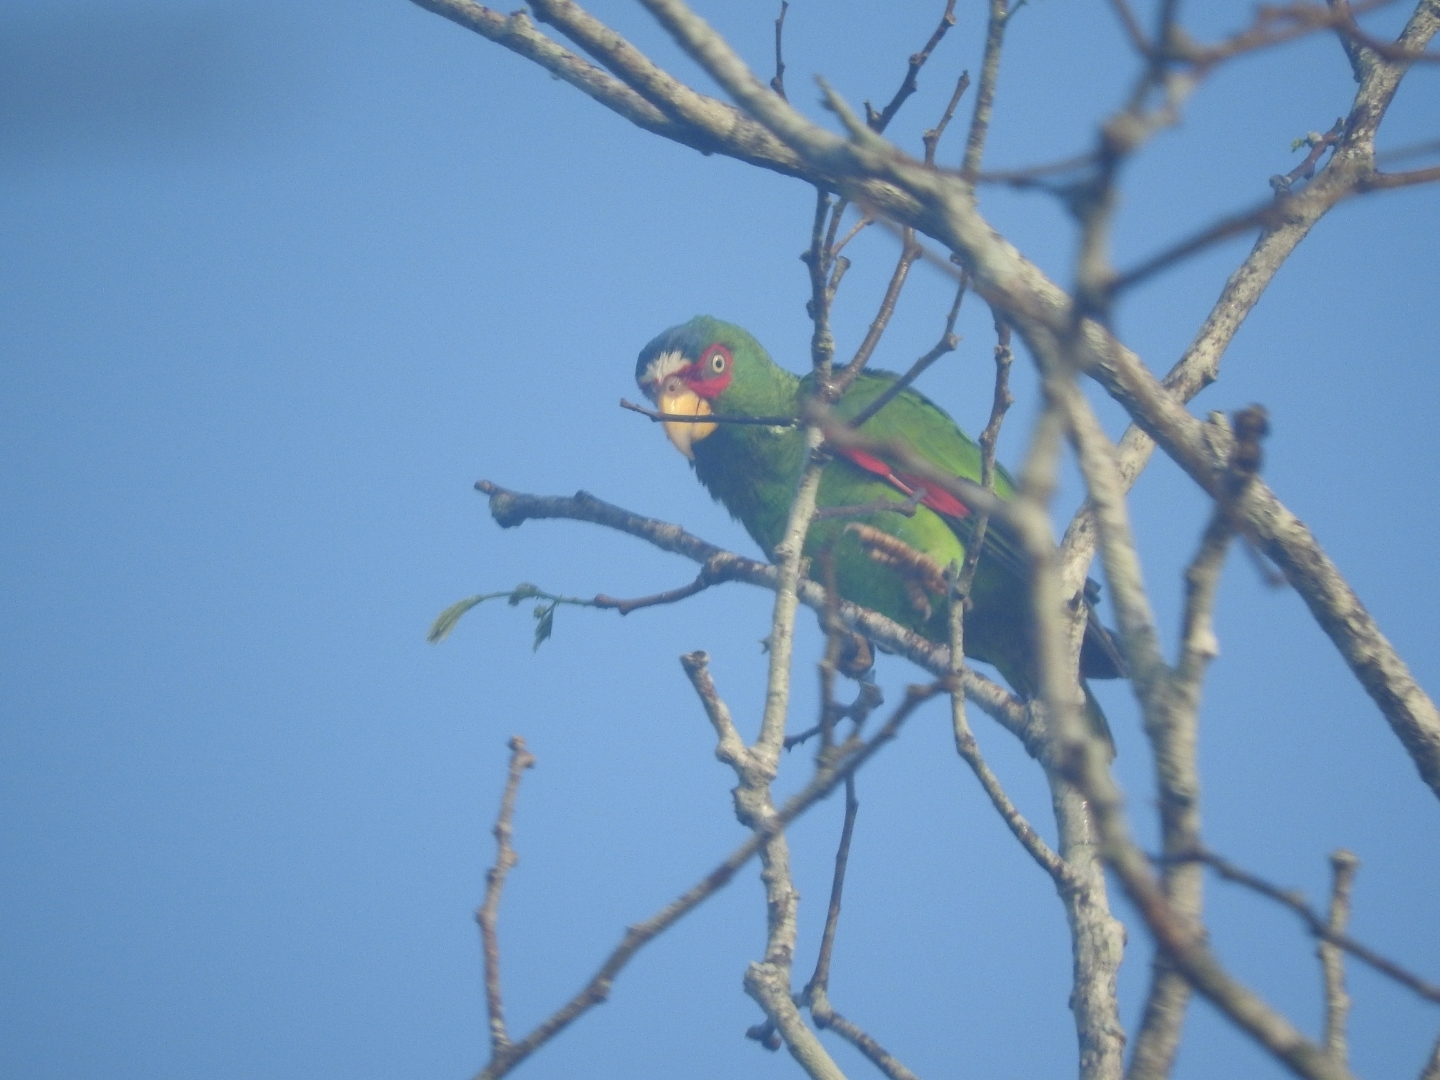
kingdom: Animalia
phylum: Chordata
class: Aves
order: Psittaciformes
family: Psittacidae
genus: Amazona
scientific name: Amazona albifrons
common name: White-fronted amazon
